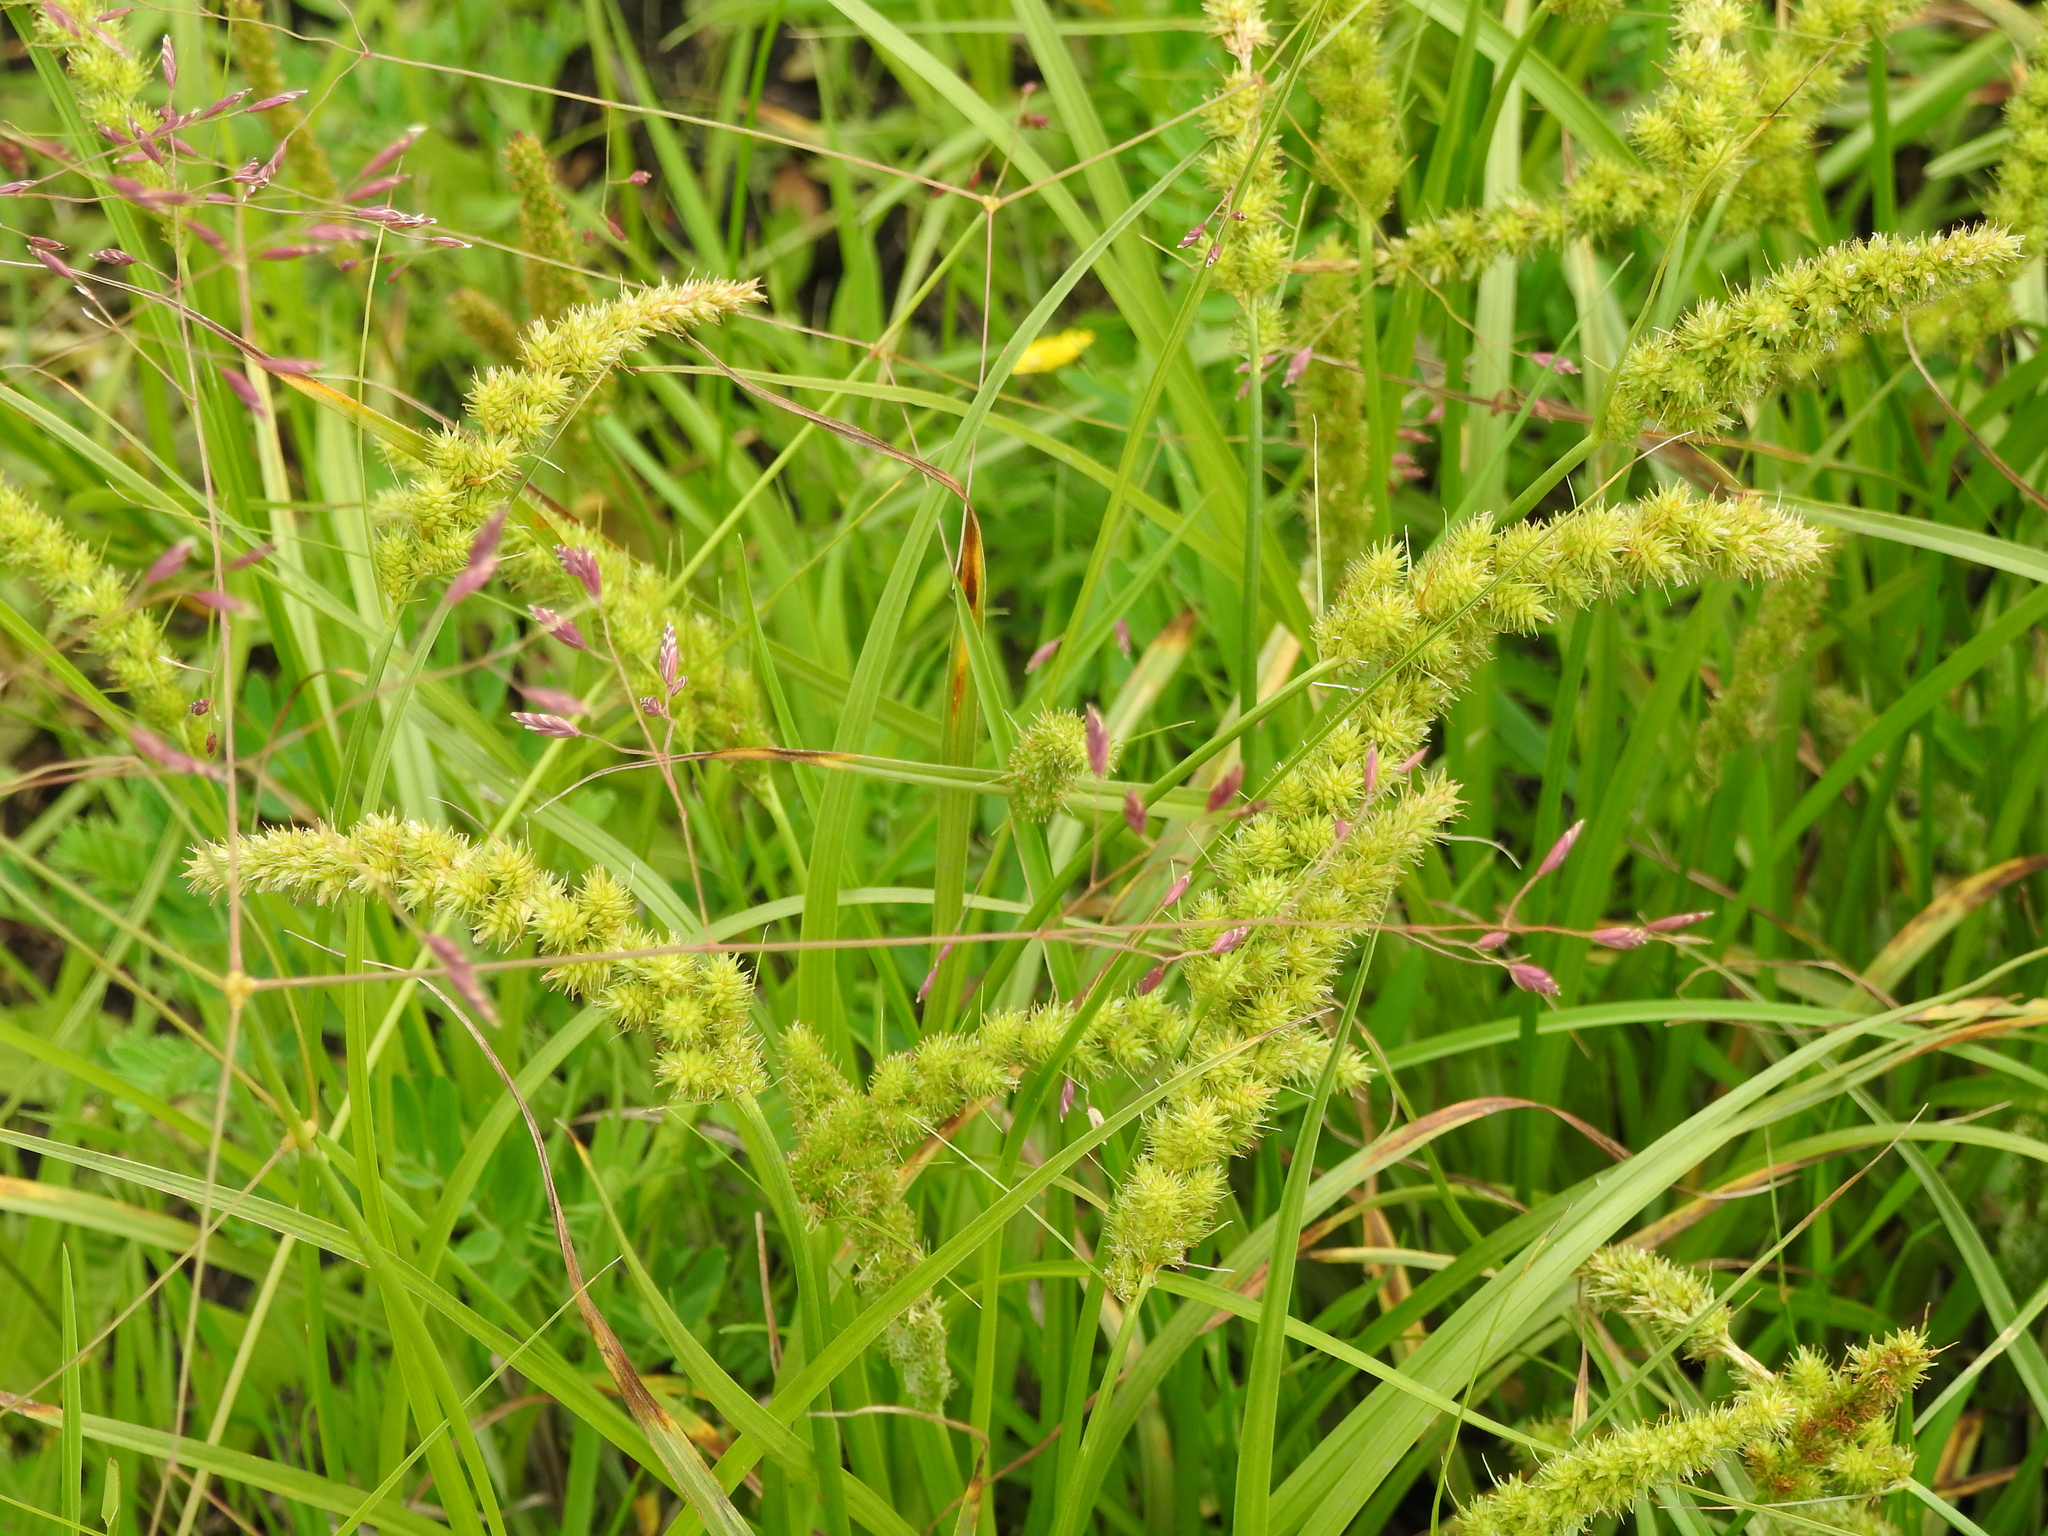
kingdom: Plantae
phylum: Tracheophyta
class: Liliopsida
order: Poales
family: Cyperaceae
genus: Carex
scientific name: Carex leiorhyncha
